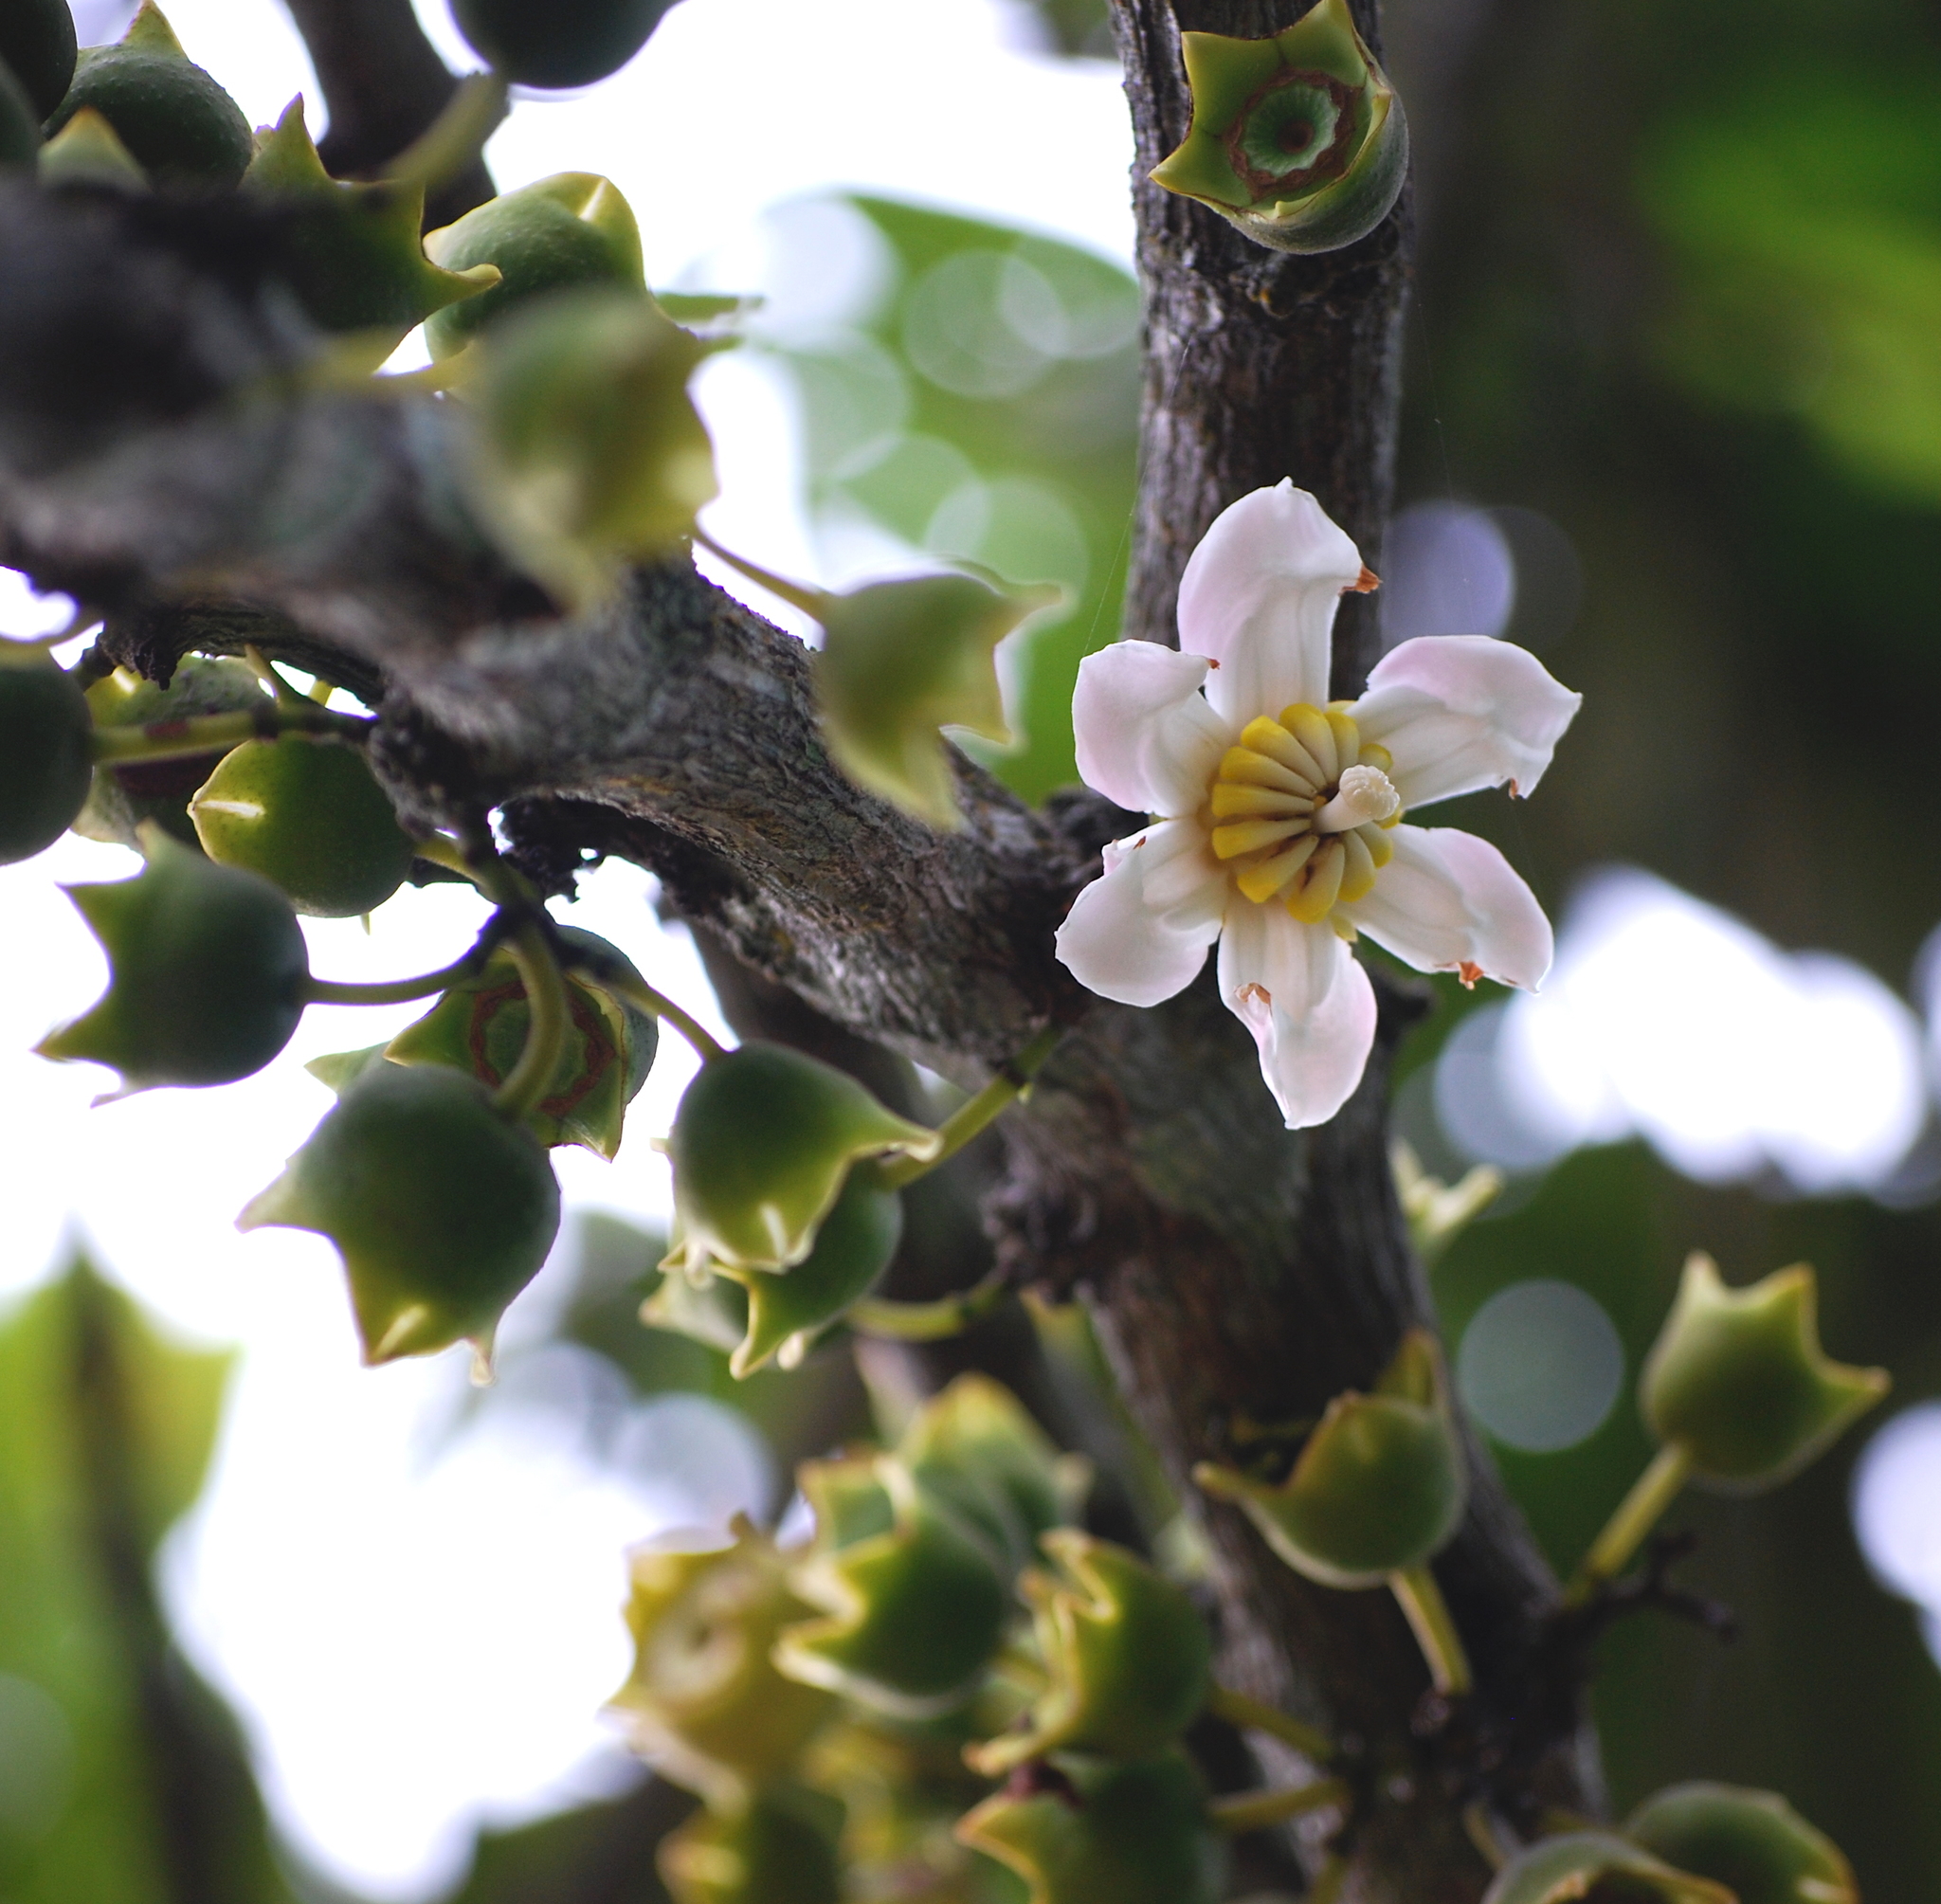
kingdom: Plantae
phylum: Tracheophyta
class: Magnoliopsida
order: Myrtales
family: Melastomataceae
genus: Bellucia
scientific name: Bellucia pentamera
